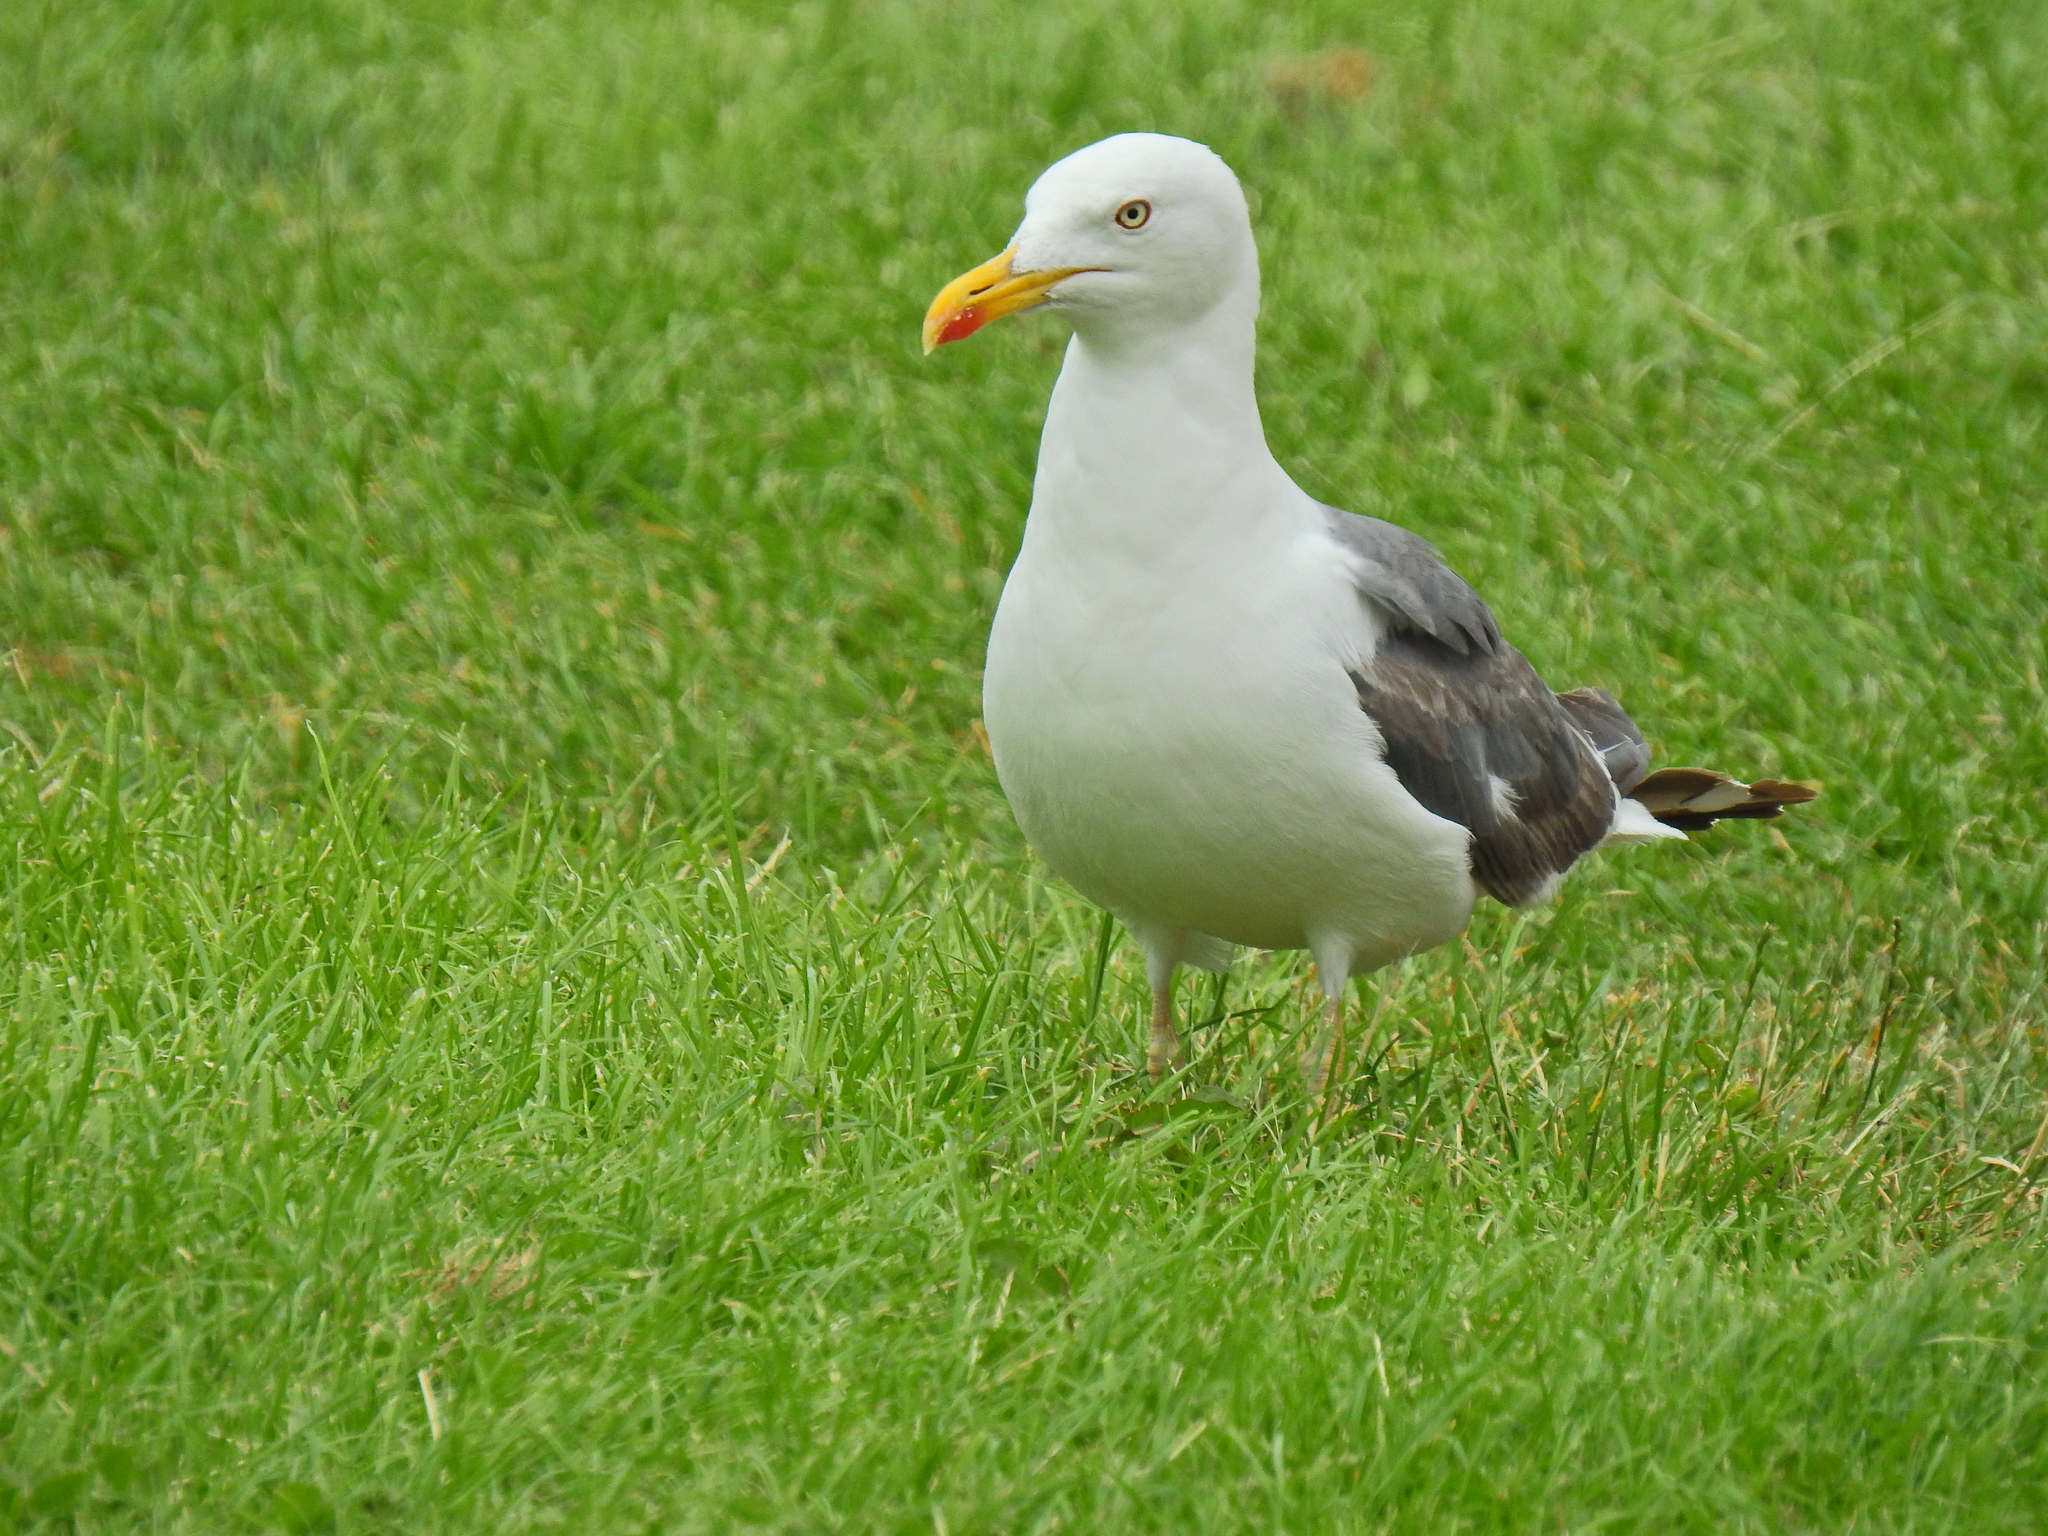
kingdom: Animalia
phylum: Chordata
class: Aves
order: Charadriiformes
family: Laridae
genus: Larus
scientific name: Larus fuscus
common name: Lesser black-backed gull
